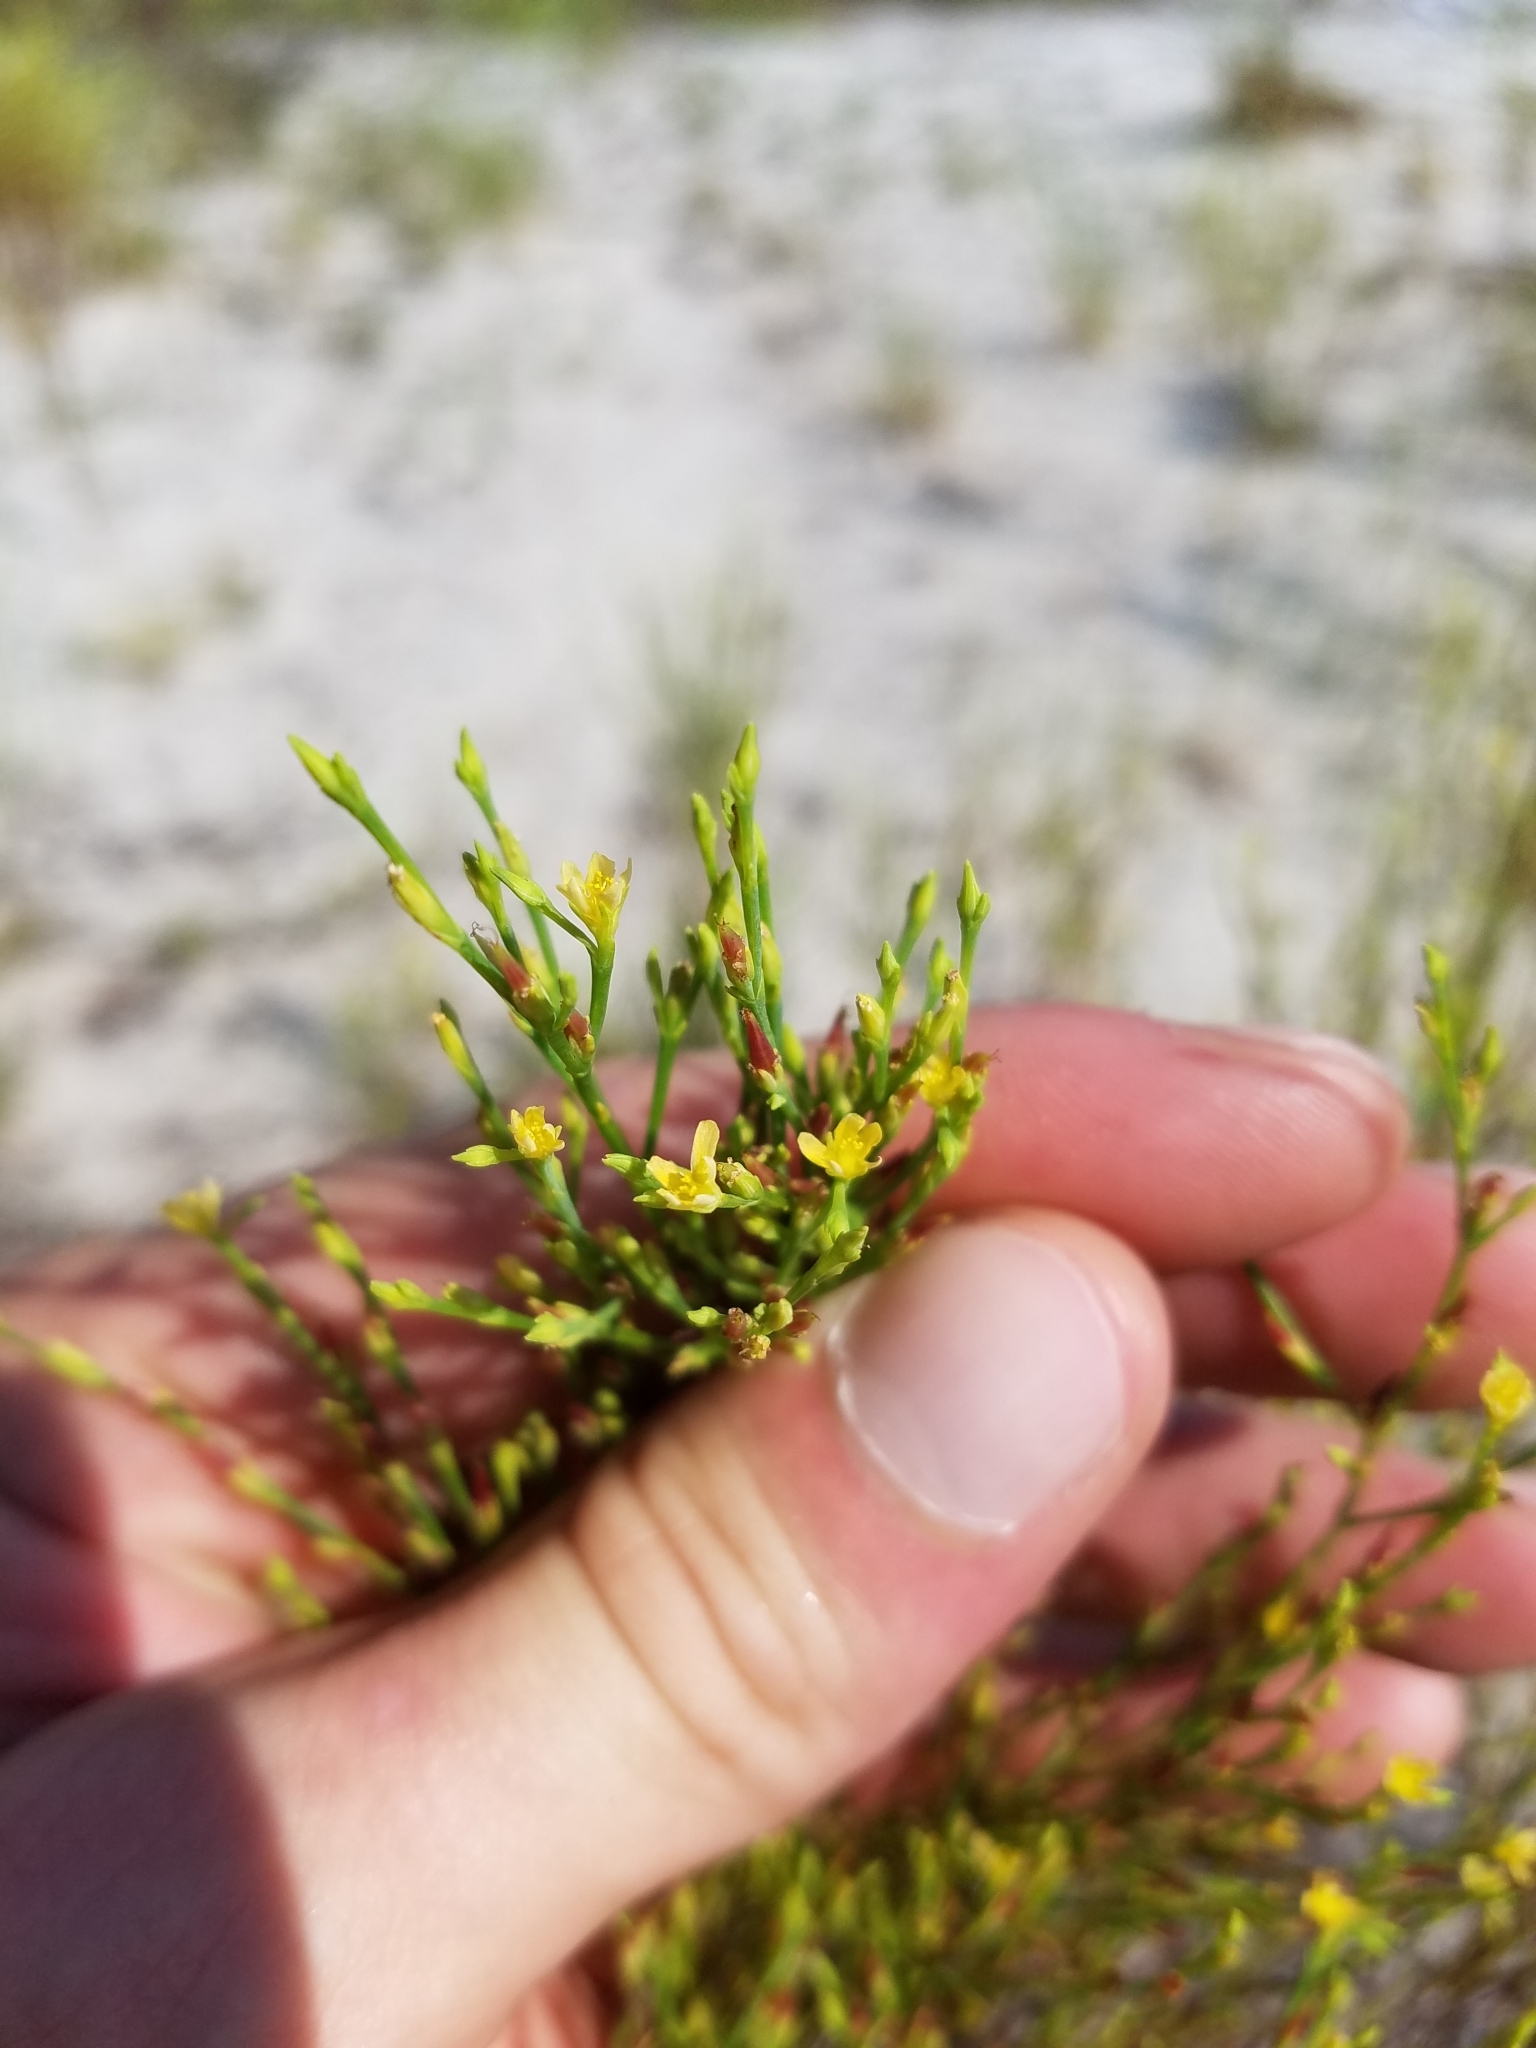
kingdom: Plantae
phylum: Tracheophyta
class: Magnoliopsida
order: Malpighiales
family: Hypericaceae
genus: Hypericum
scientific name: Hypericum gentianoides
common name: Gentian-leaved st. john's-wort
